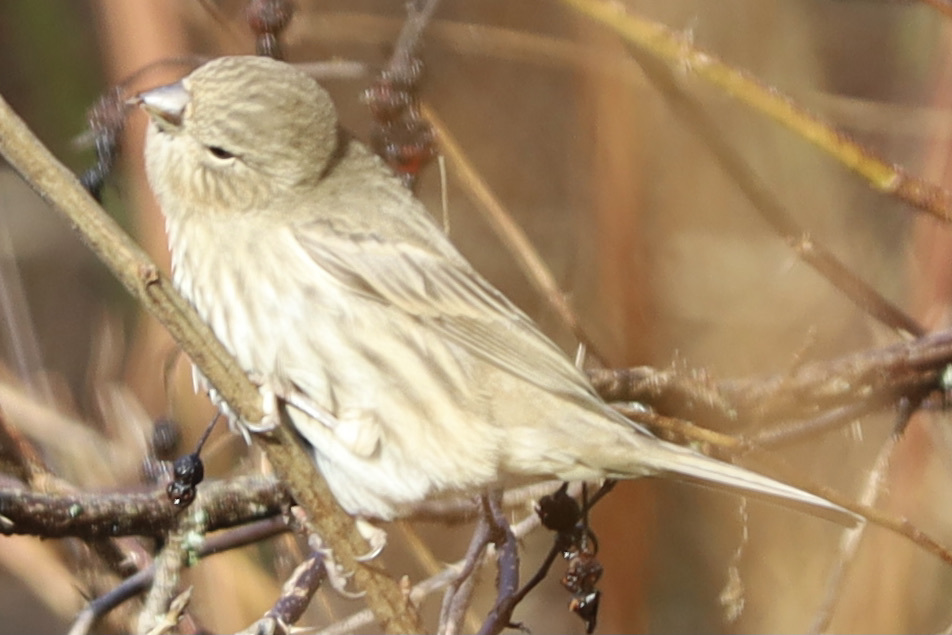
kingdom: Animalia
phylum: Chordata
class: Aves
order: Passeriformes
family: Fringillidae
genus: Haemorhous
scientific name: Haemorhous mexicanus
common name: House finch
